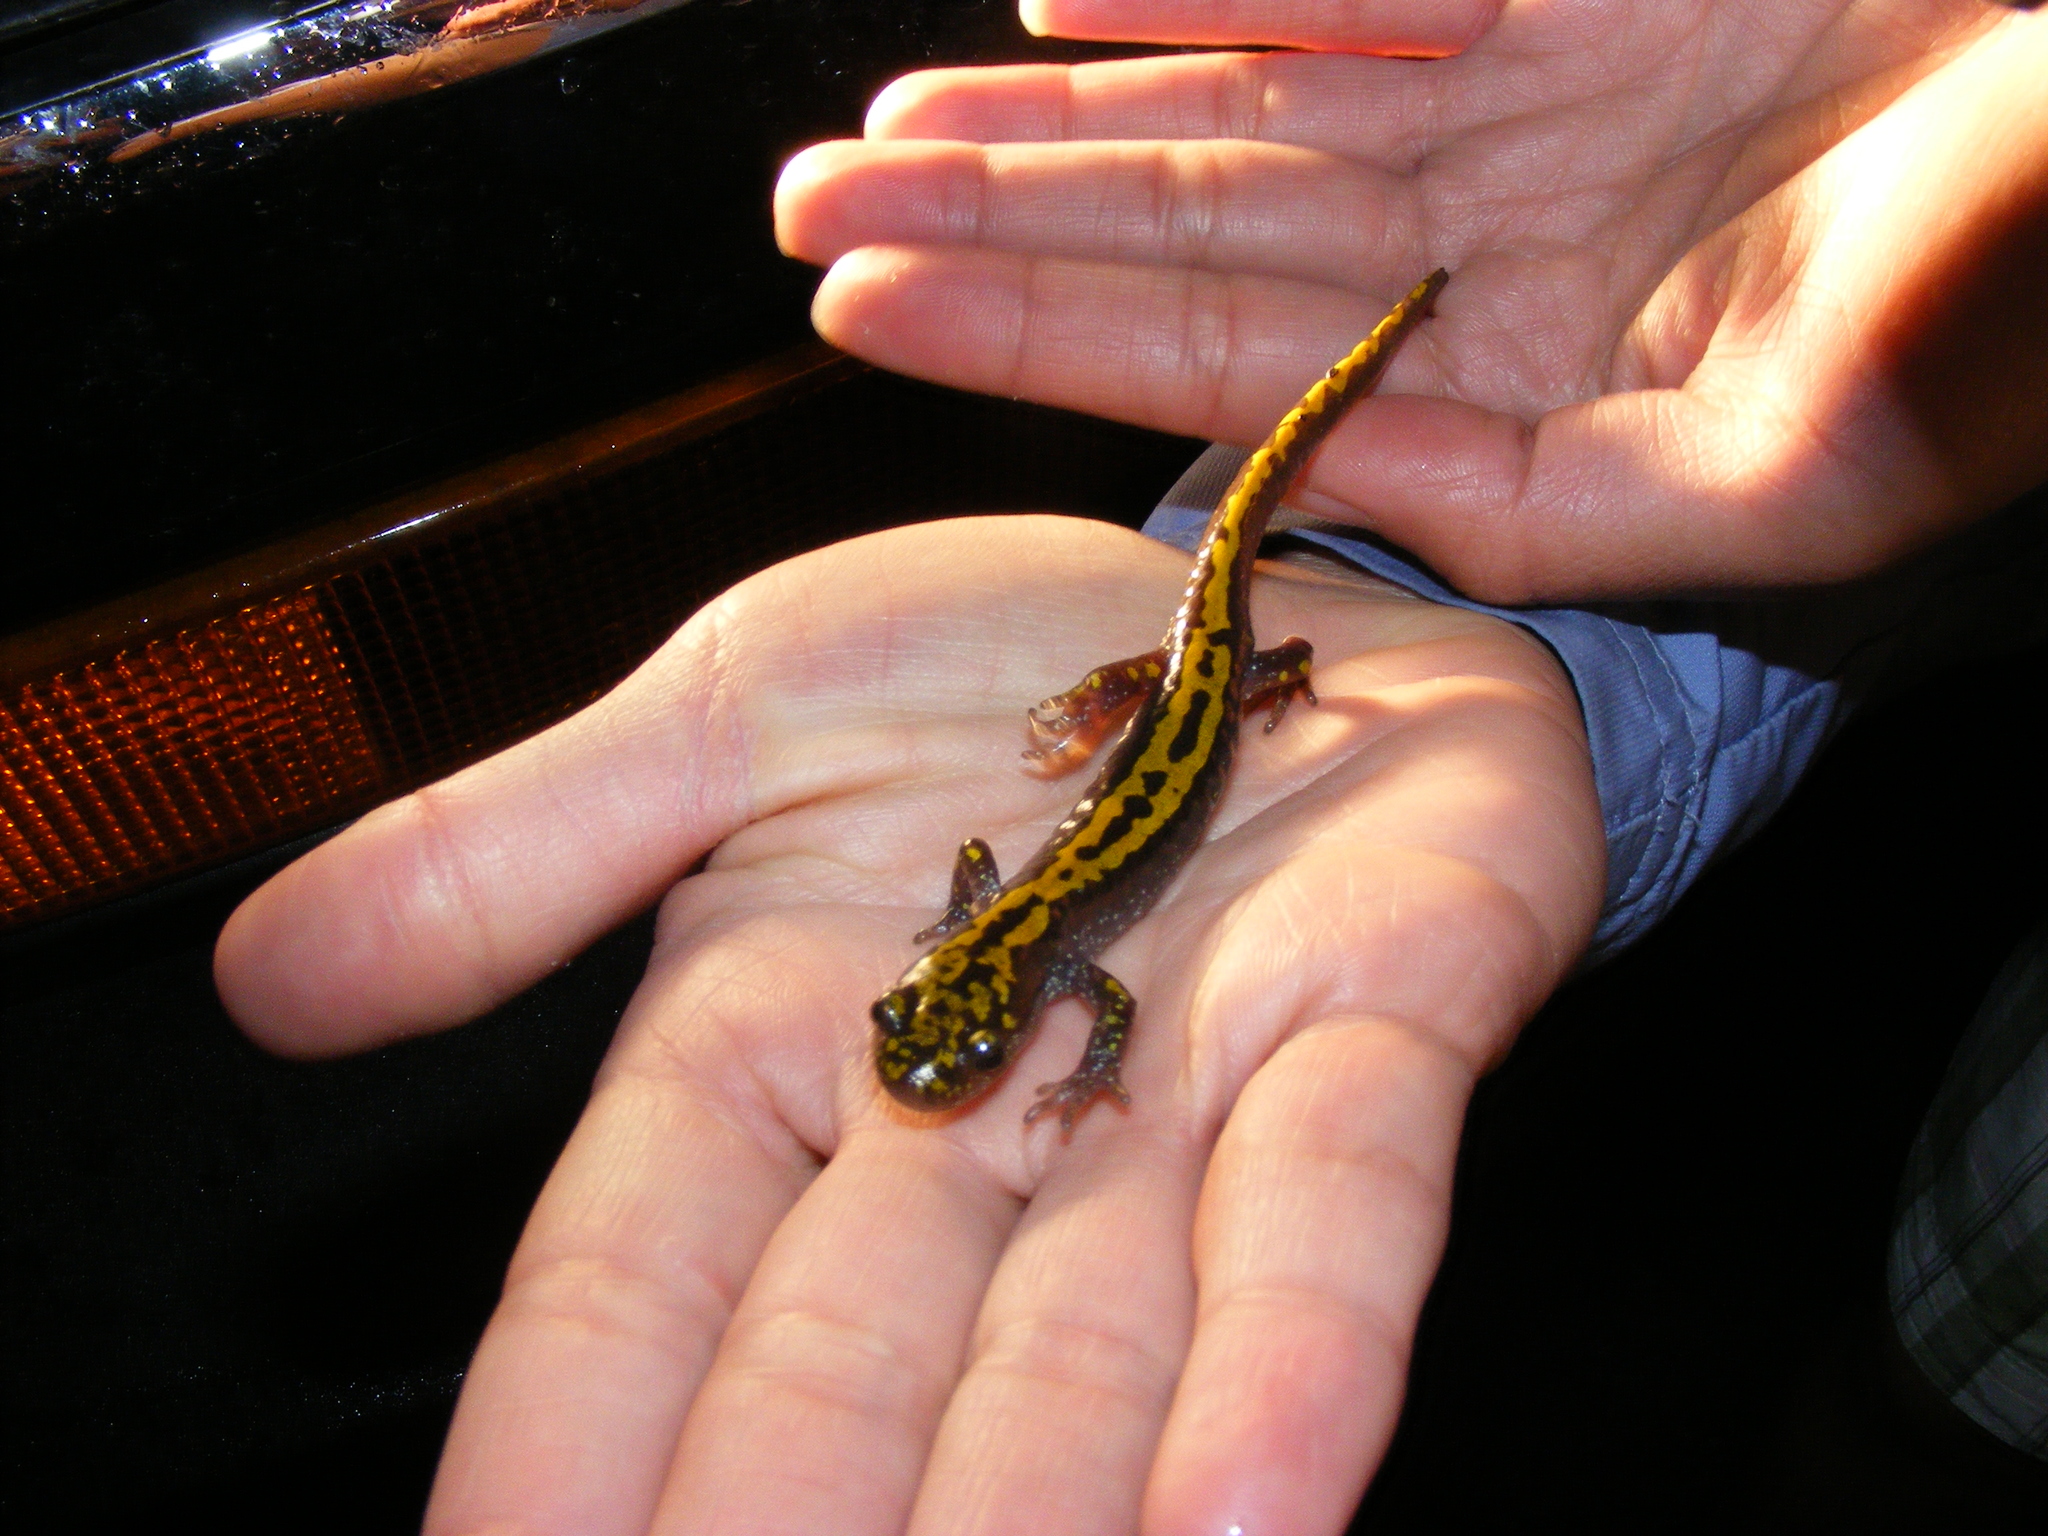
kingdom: Animalia
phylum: Chordata
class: Amphibia
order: Caudata
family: Ambystomatidae
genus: Ambystoma
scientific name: Ambystoma macrodactylum
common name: Long-toed salamander
